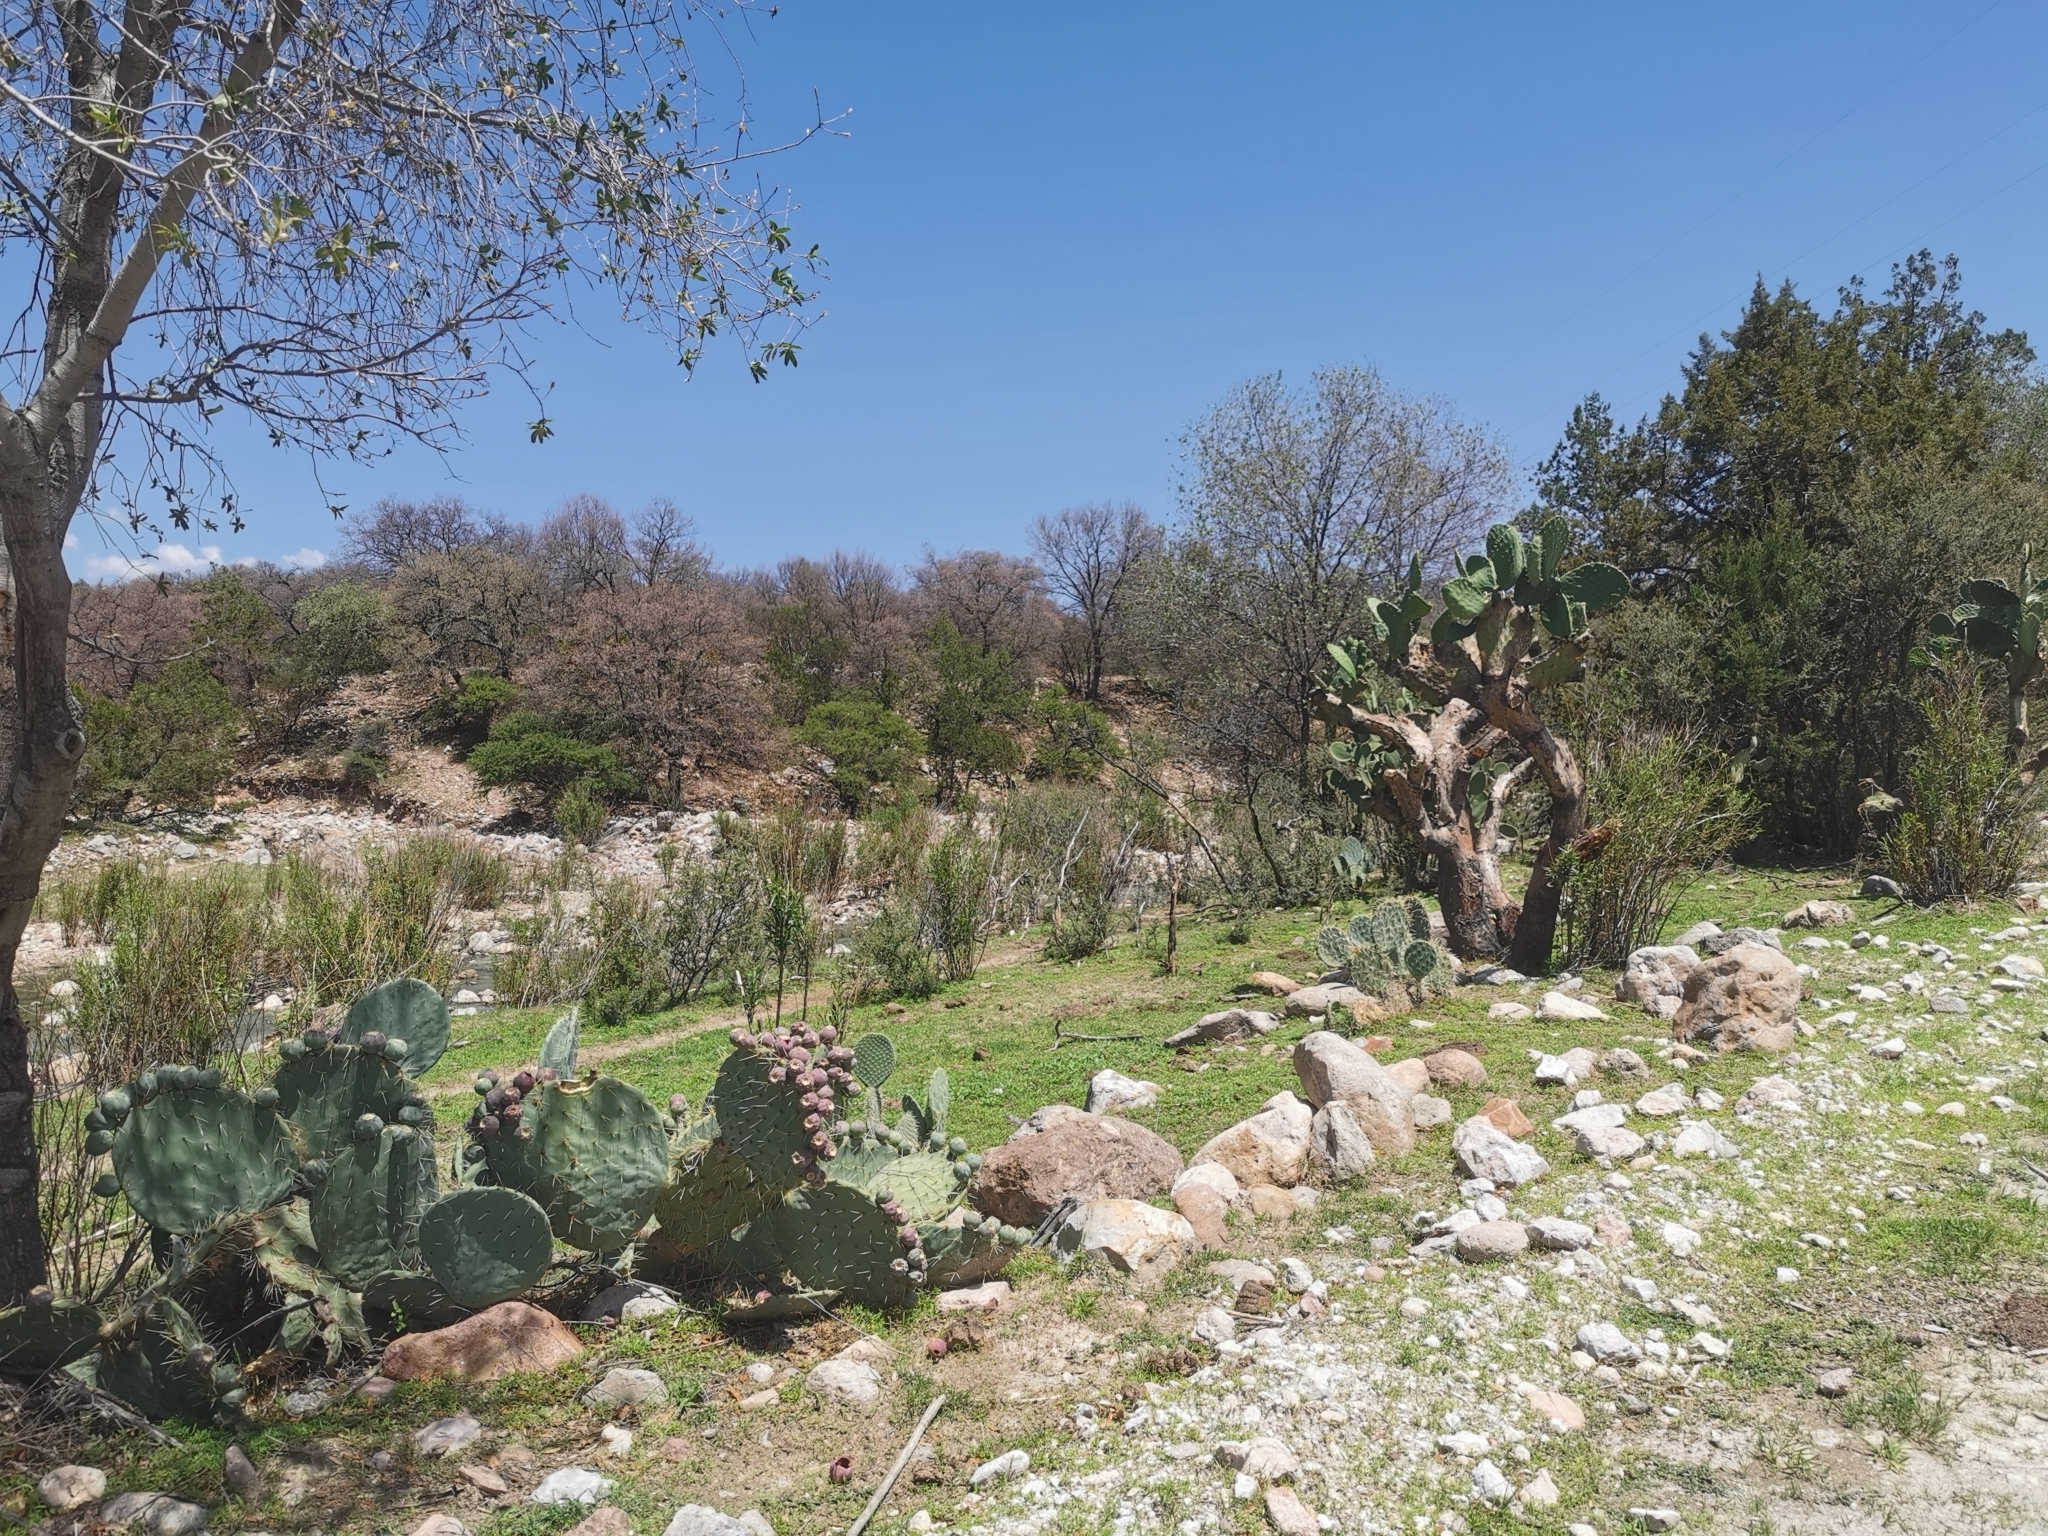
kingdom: Plantae
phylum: Tracheophyta
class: Magnoliopsida
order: Caryophyllales
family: Cactaceae
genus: Opuntia
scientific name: Opuntia robusta
